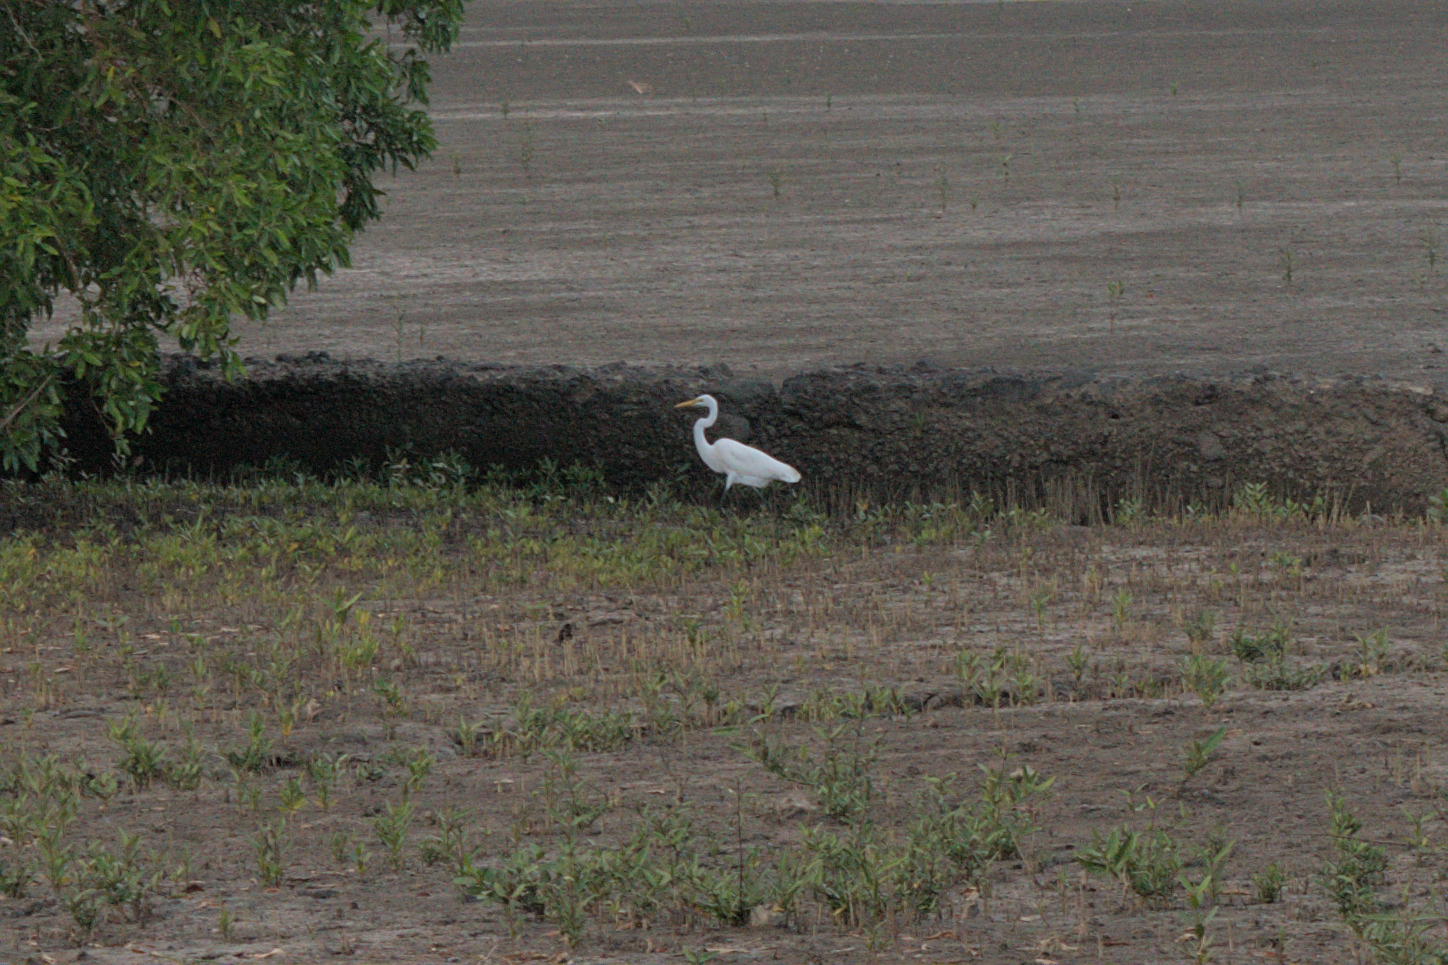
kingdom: Animalia
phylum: Chordata
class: Aves
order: Pelecaniformes
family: Ardeidae
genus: Ardea
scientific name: Ardea alba
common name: Great egret
